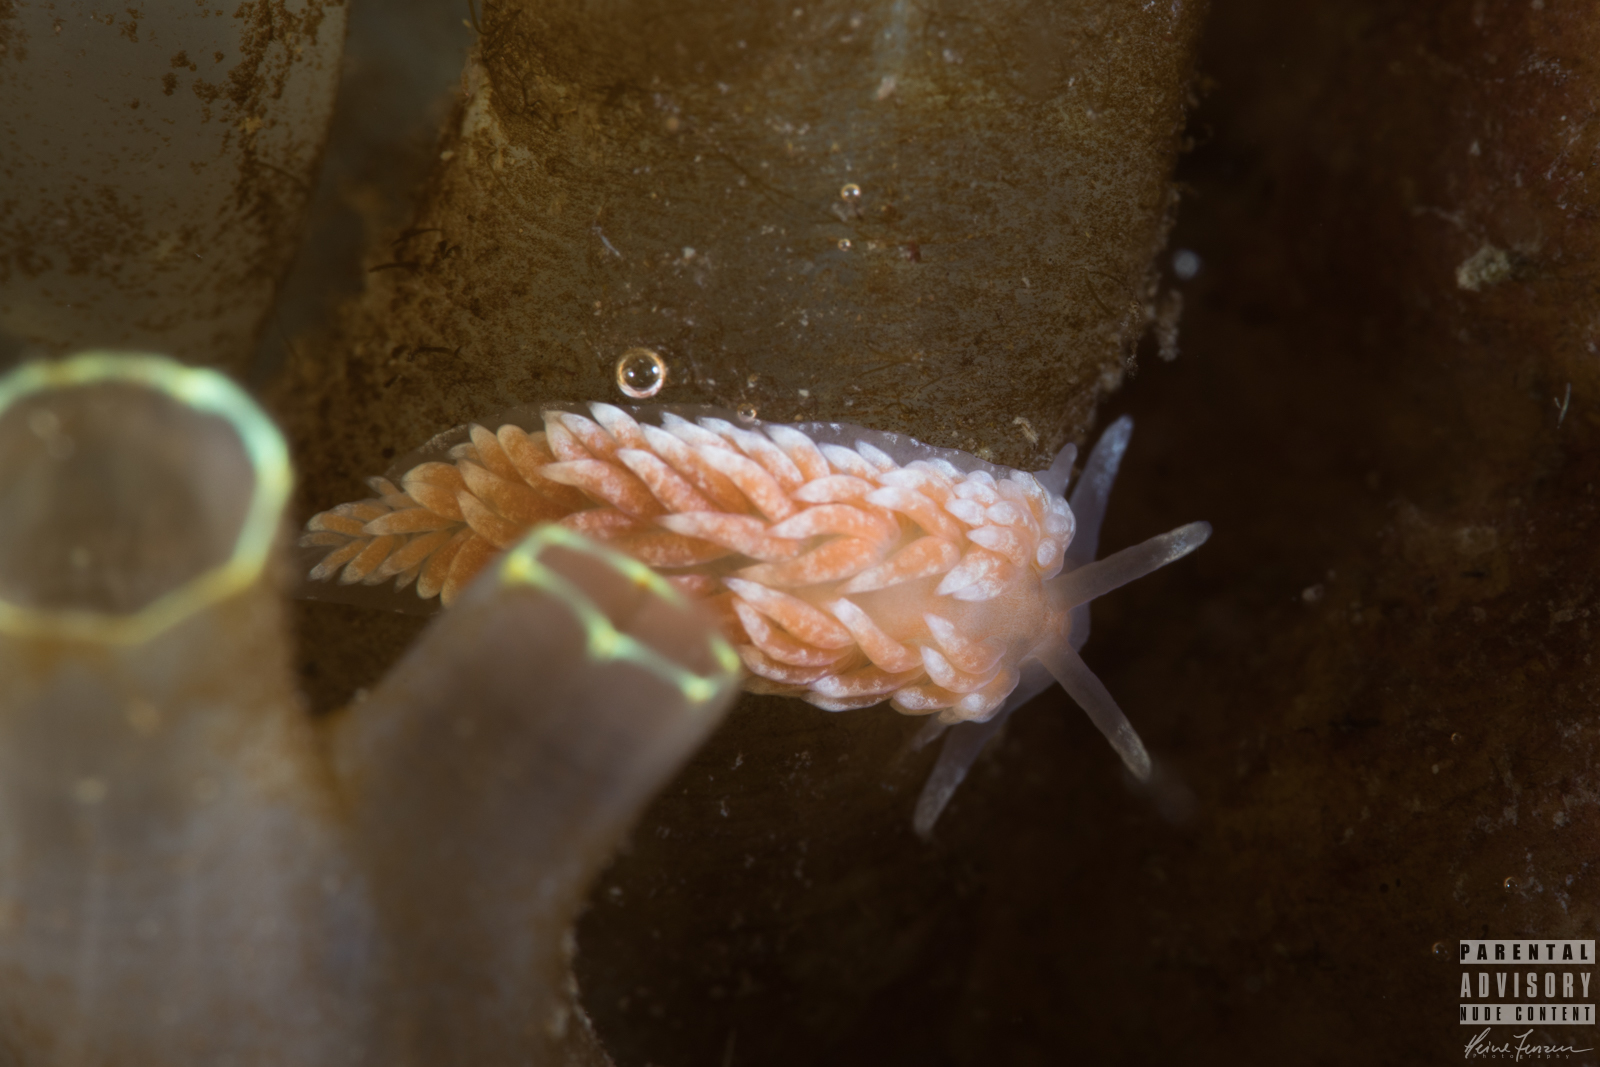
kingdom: Animalia
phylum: Mollusca
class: Gastropoda
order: Nudibranchia
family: Aeolidiidae
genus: Aeolidiella
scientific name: Aeolidiella glauca
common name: Orange-brown aeolid
